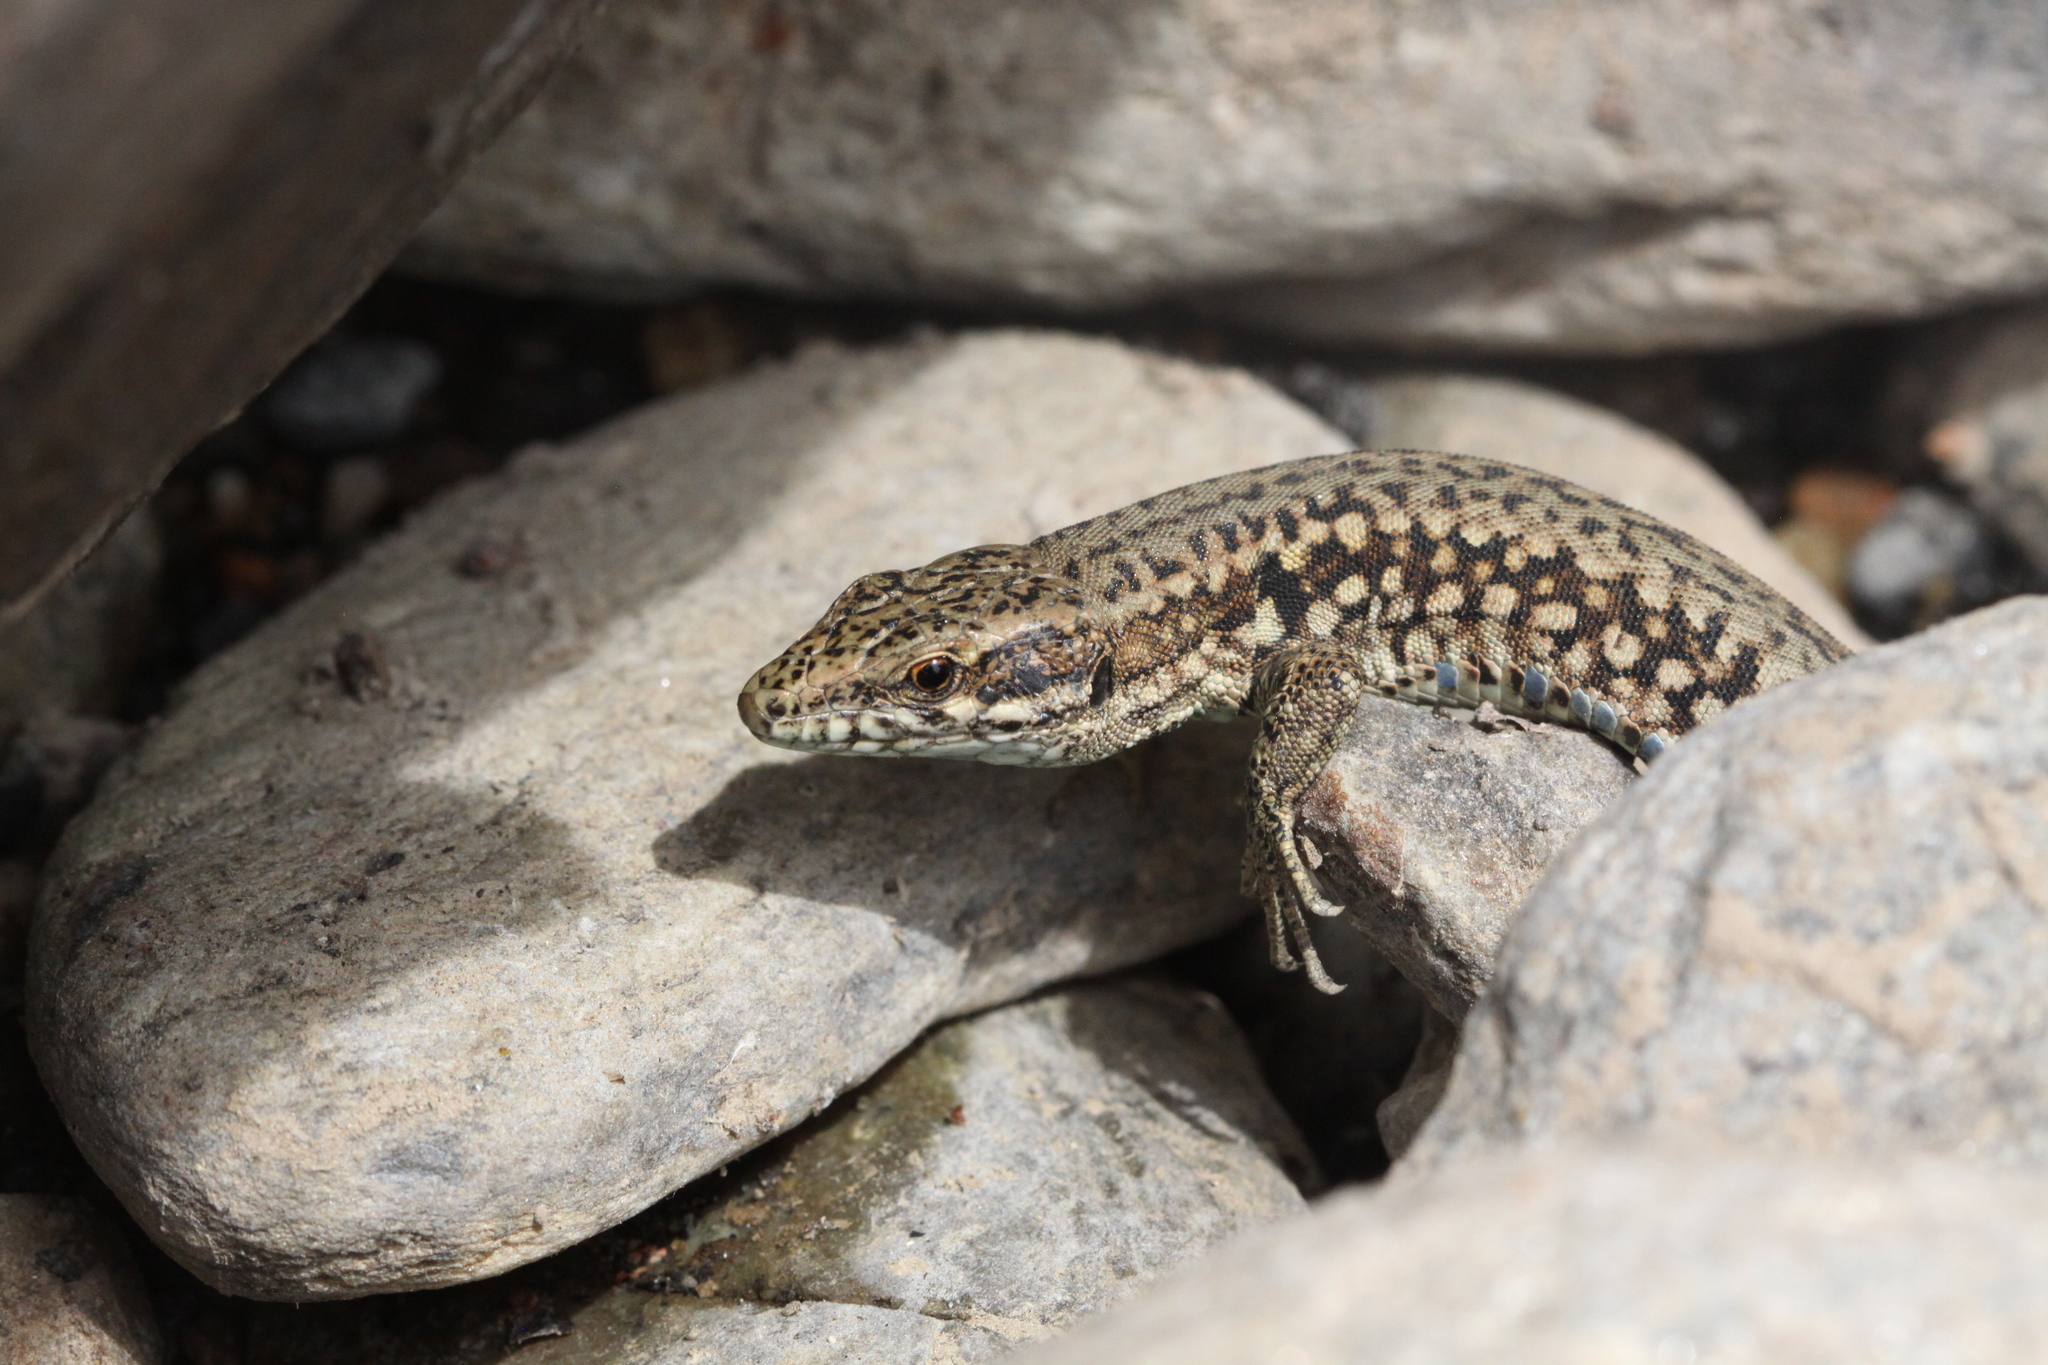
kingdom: Animalia
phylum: Chordata
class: Squamata
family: Lacertidae
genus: Podarcis
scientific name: Podarcis muralis
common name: Common wall lizard
